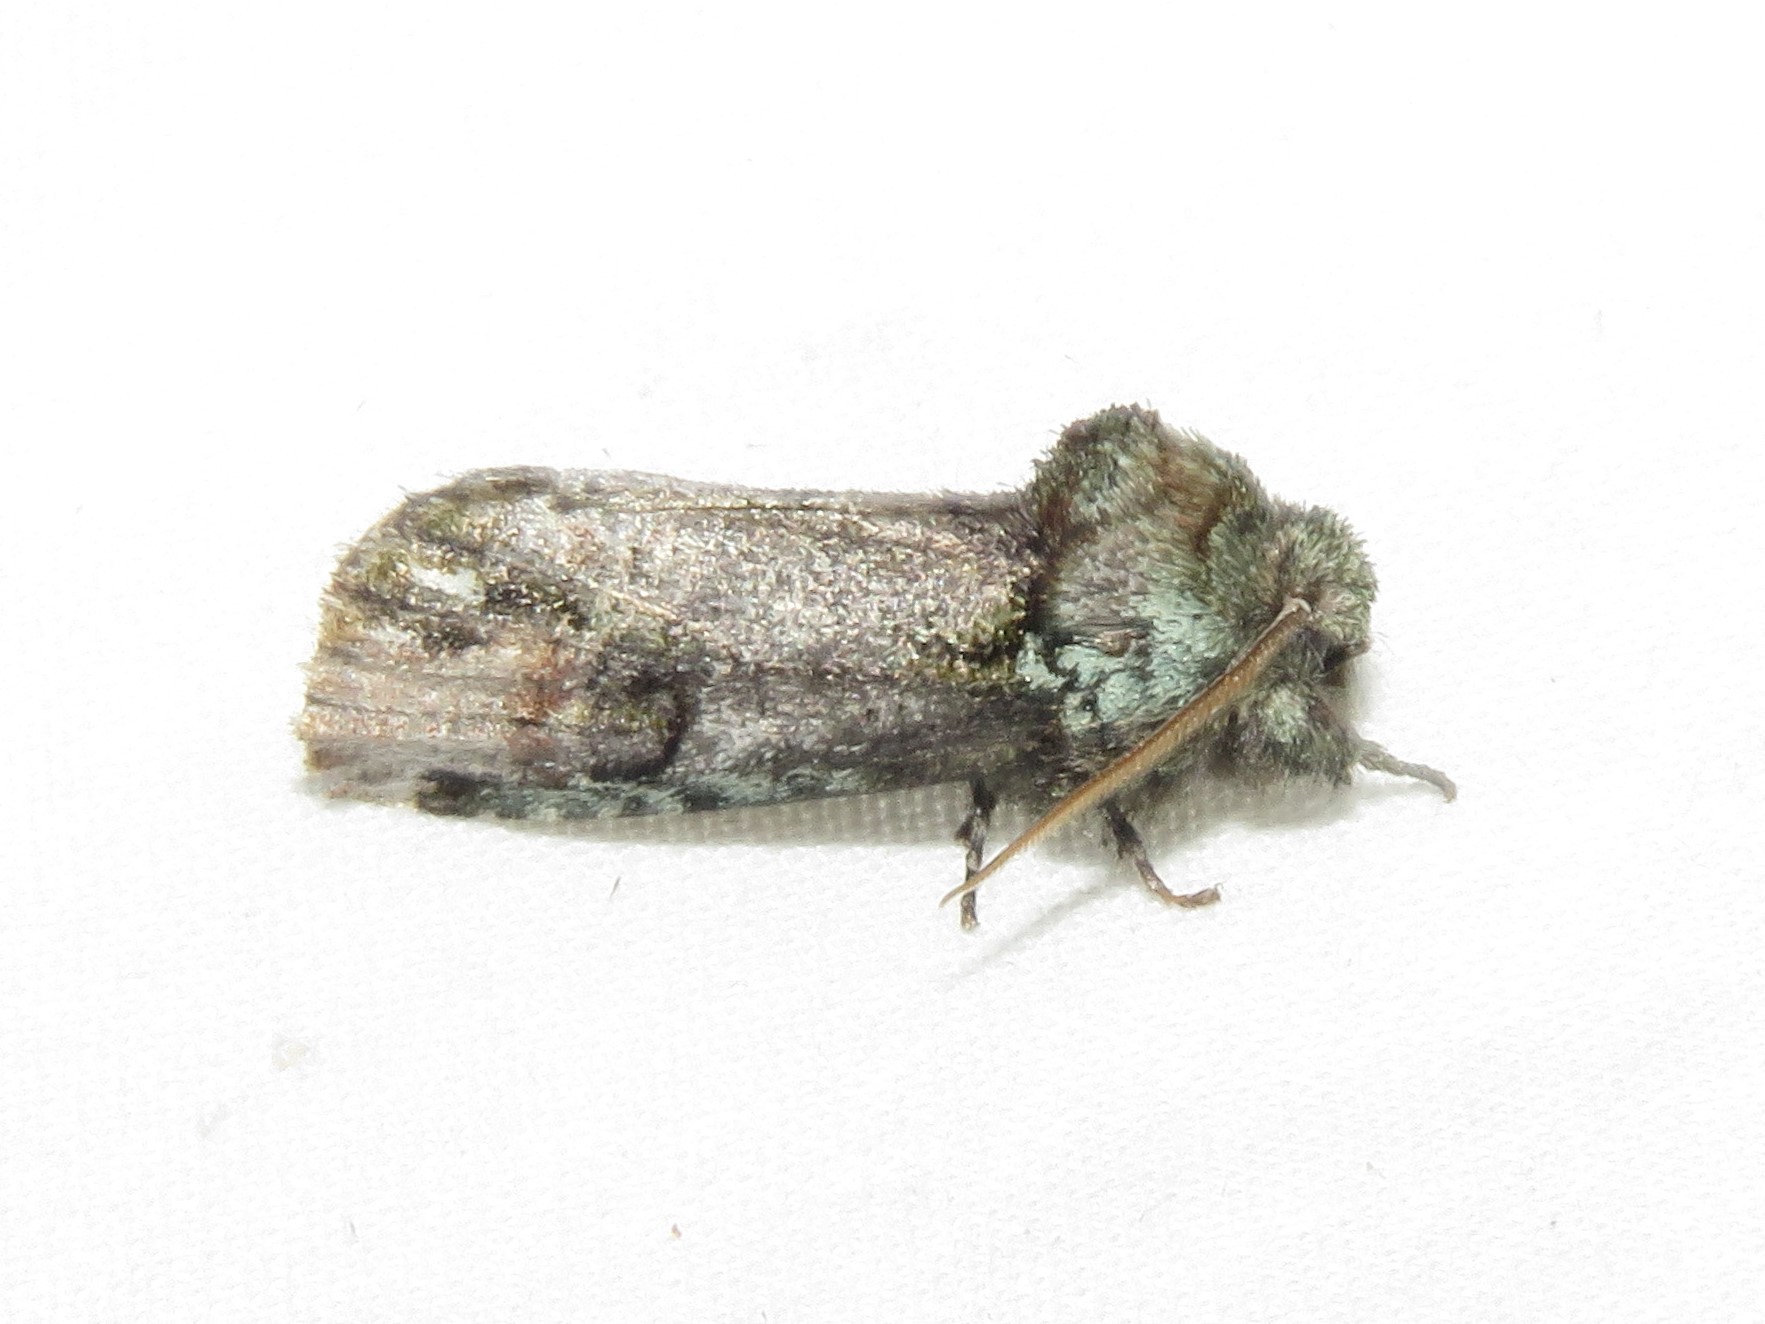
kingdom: Animalia
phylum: Arthropoda
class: Insecta
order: Lepidoptera
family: Notodontidae
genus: Schizura
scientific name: Schizura
